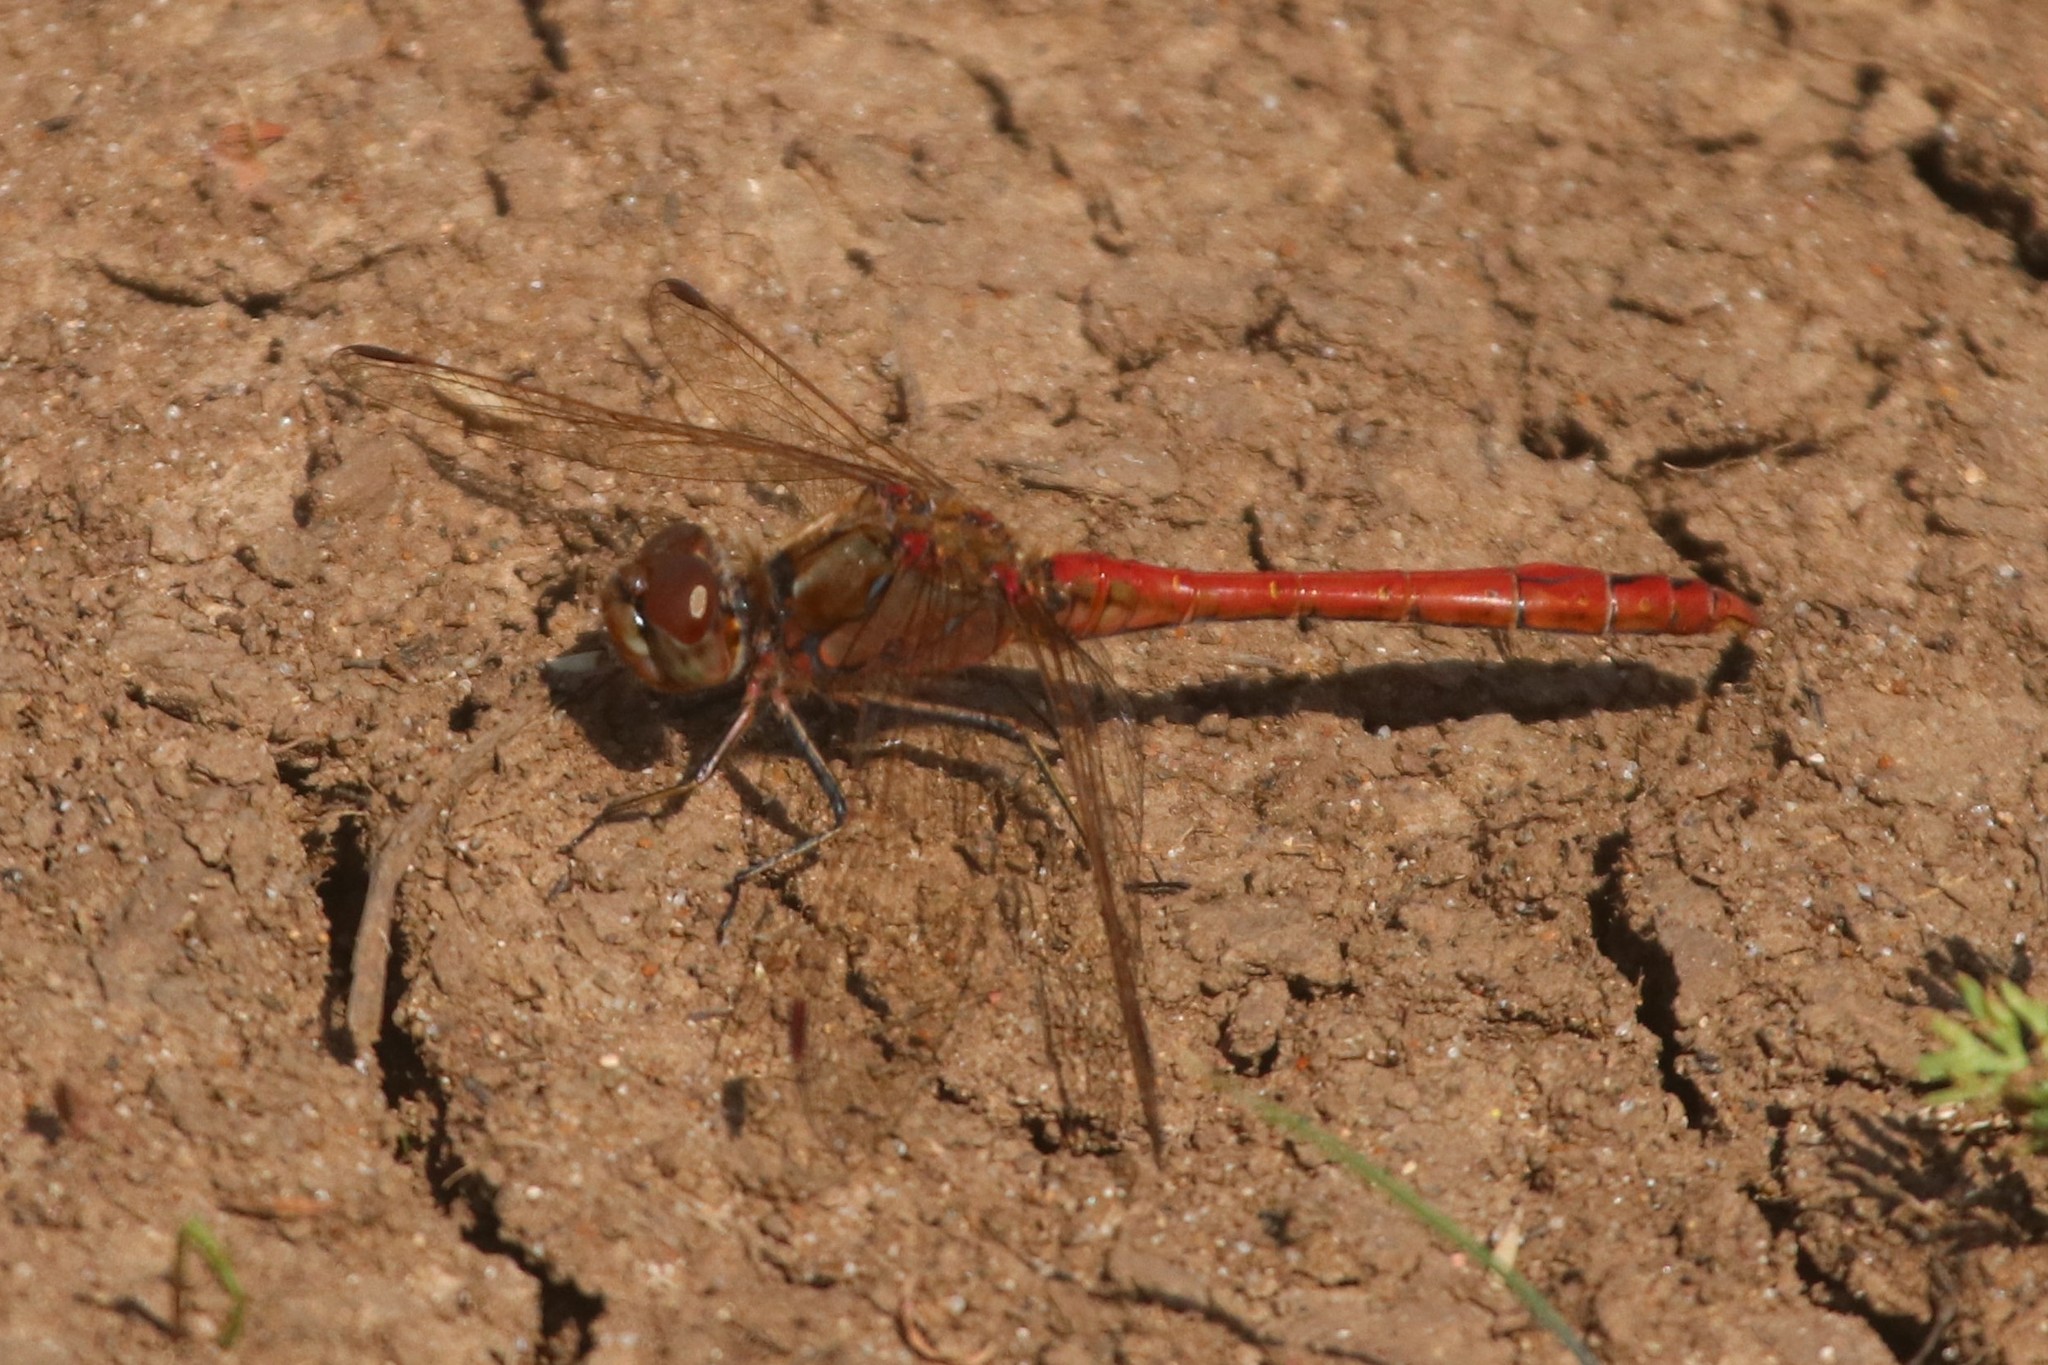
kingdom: Animalia
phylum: Arthropoda
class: Insecta
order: Odonata
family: Libellulidae
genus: Sympetrum
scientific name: Sympetrum vulgatum
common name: Vagrant darter
